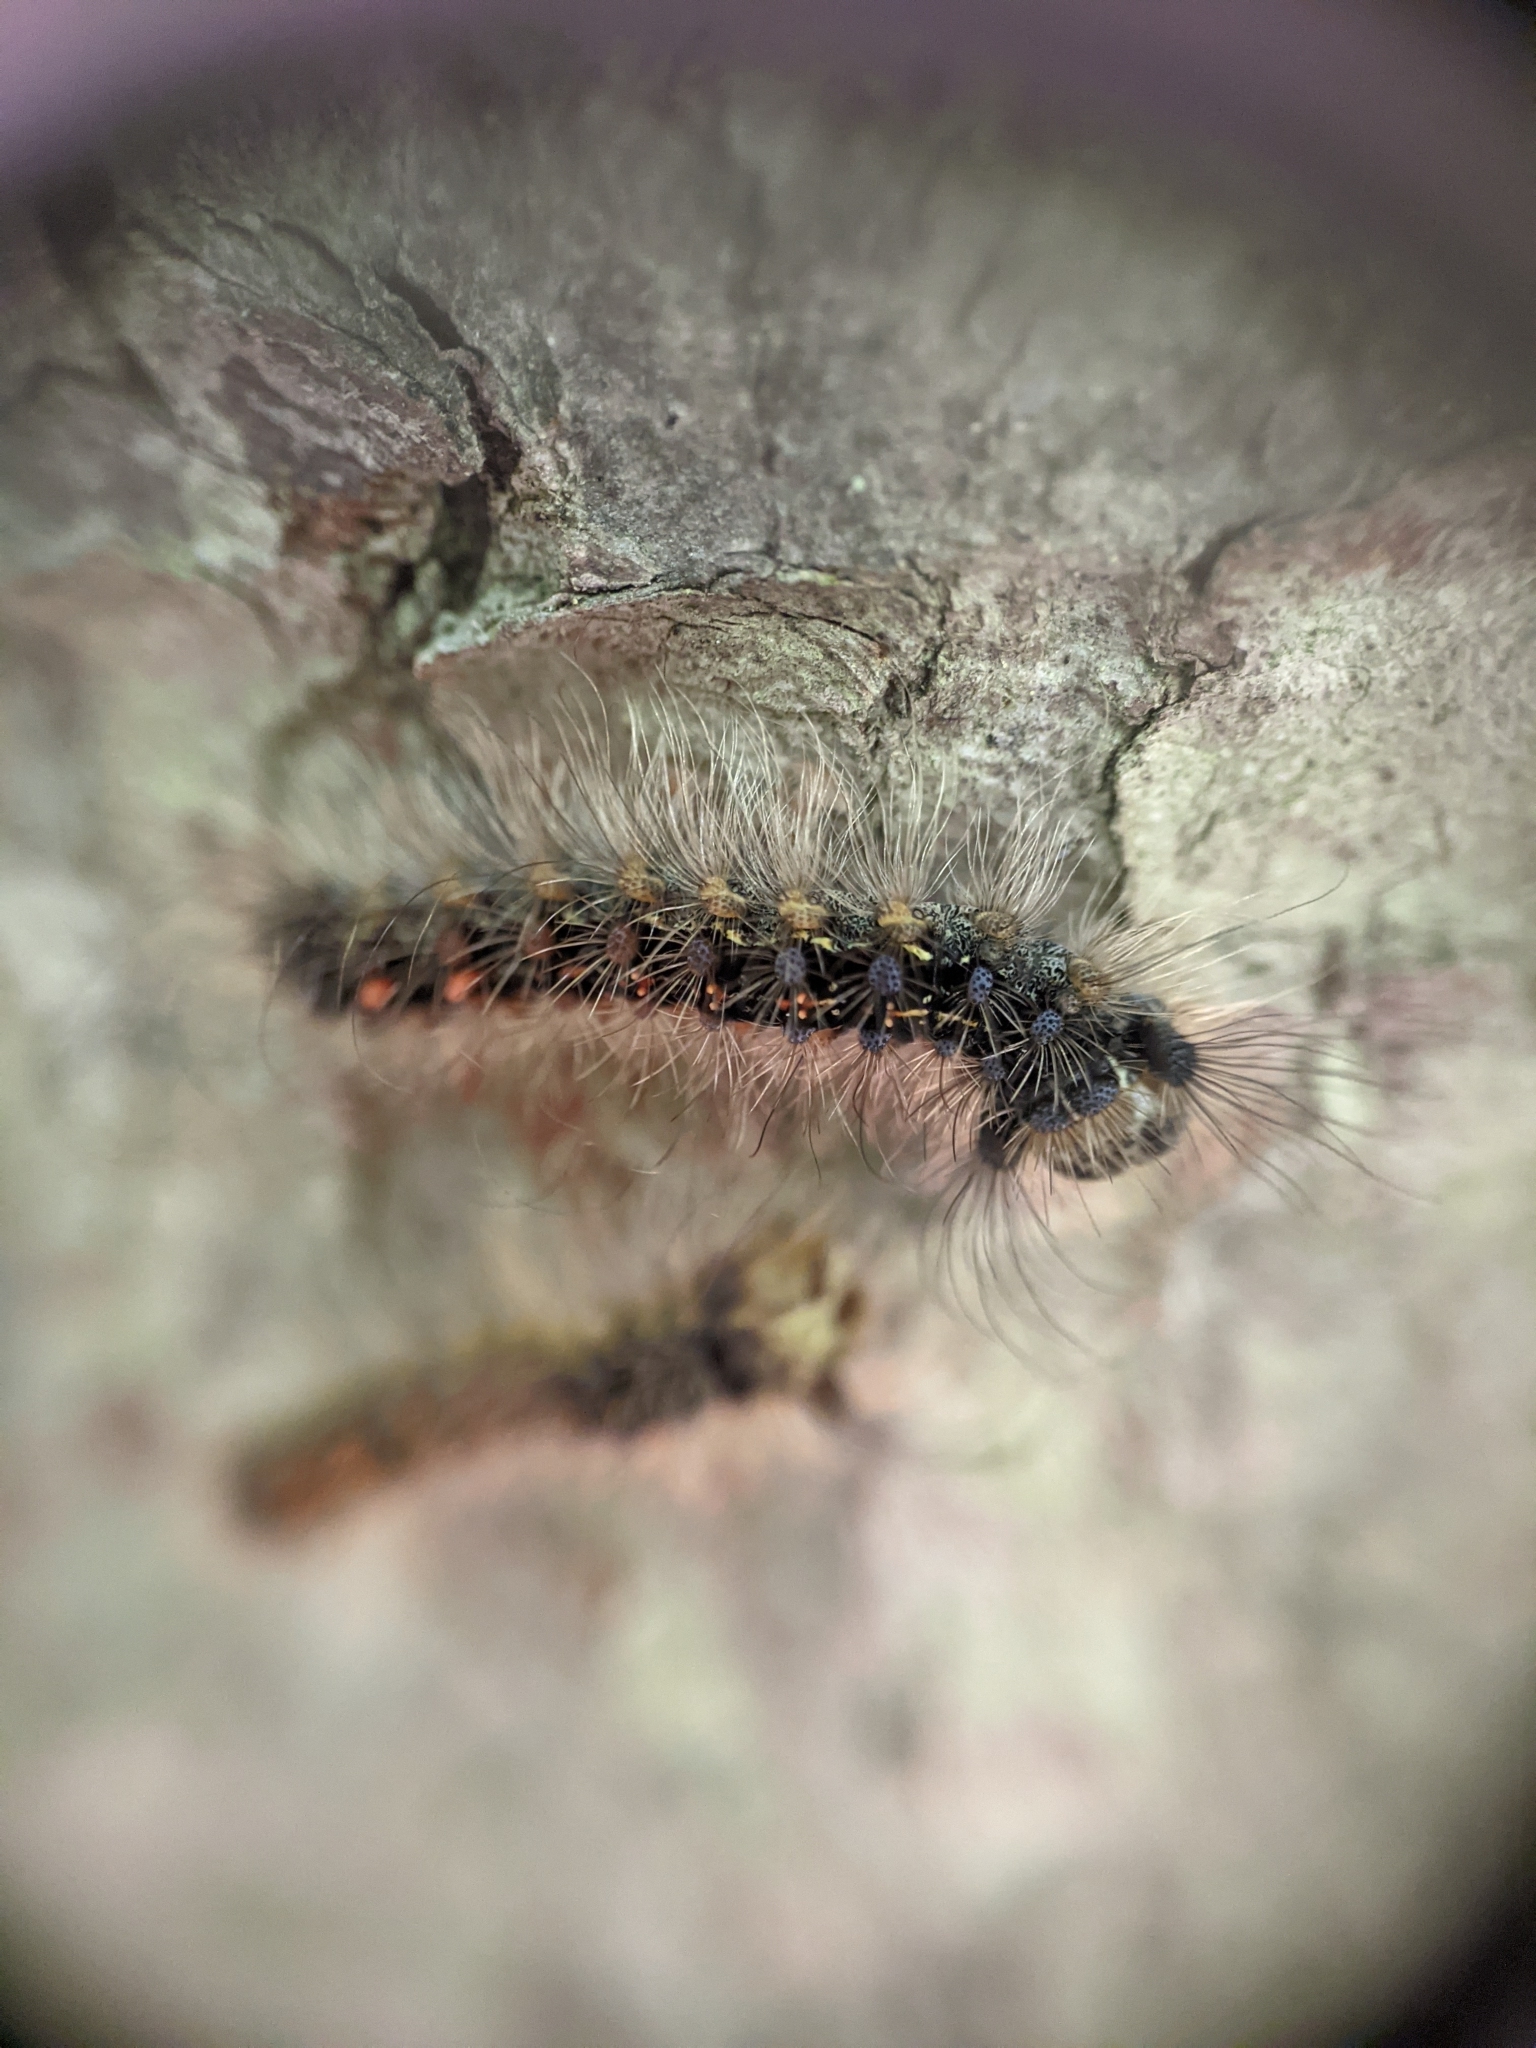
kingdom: Animalia
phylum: Arthropoda
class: Insecta
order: Lepidoptera
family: Erebidae
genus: Lymantria
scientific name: Lymantria dispar
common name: Gypsy moth
